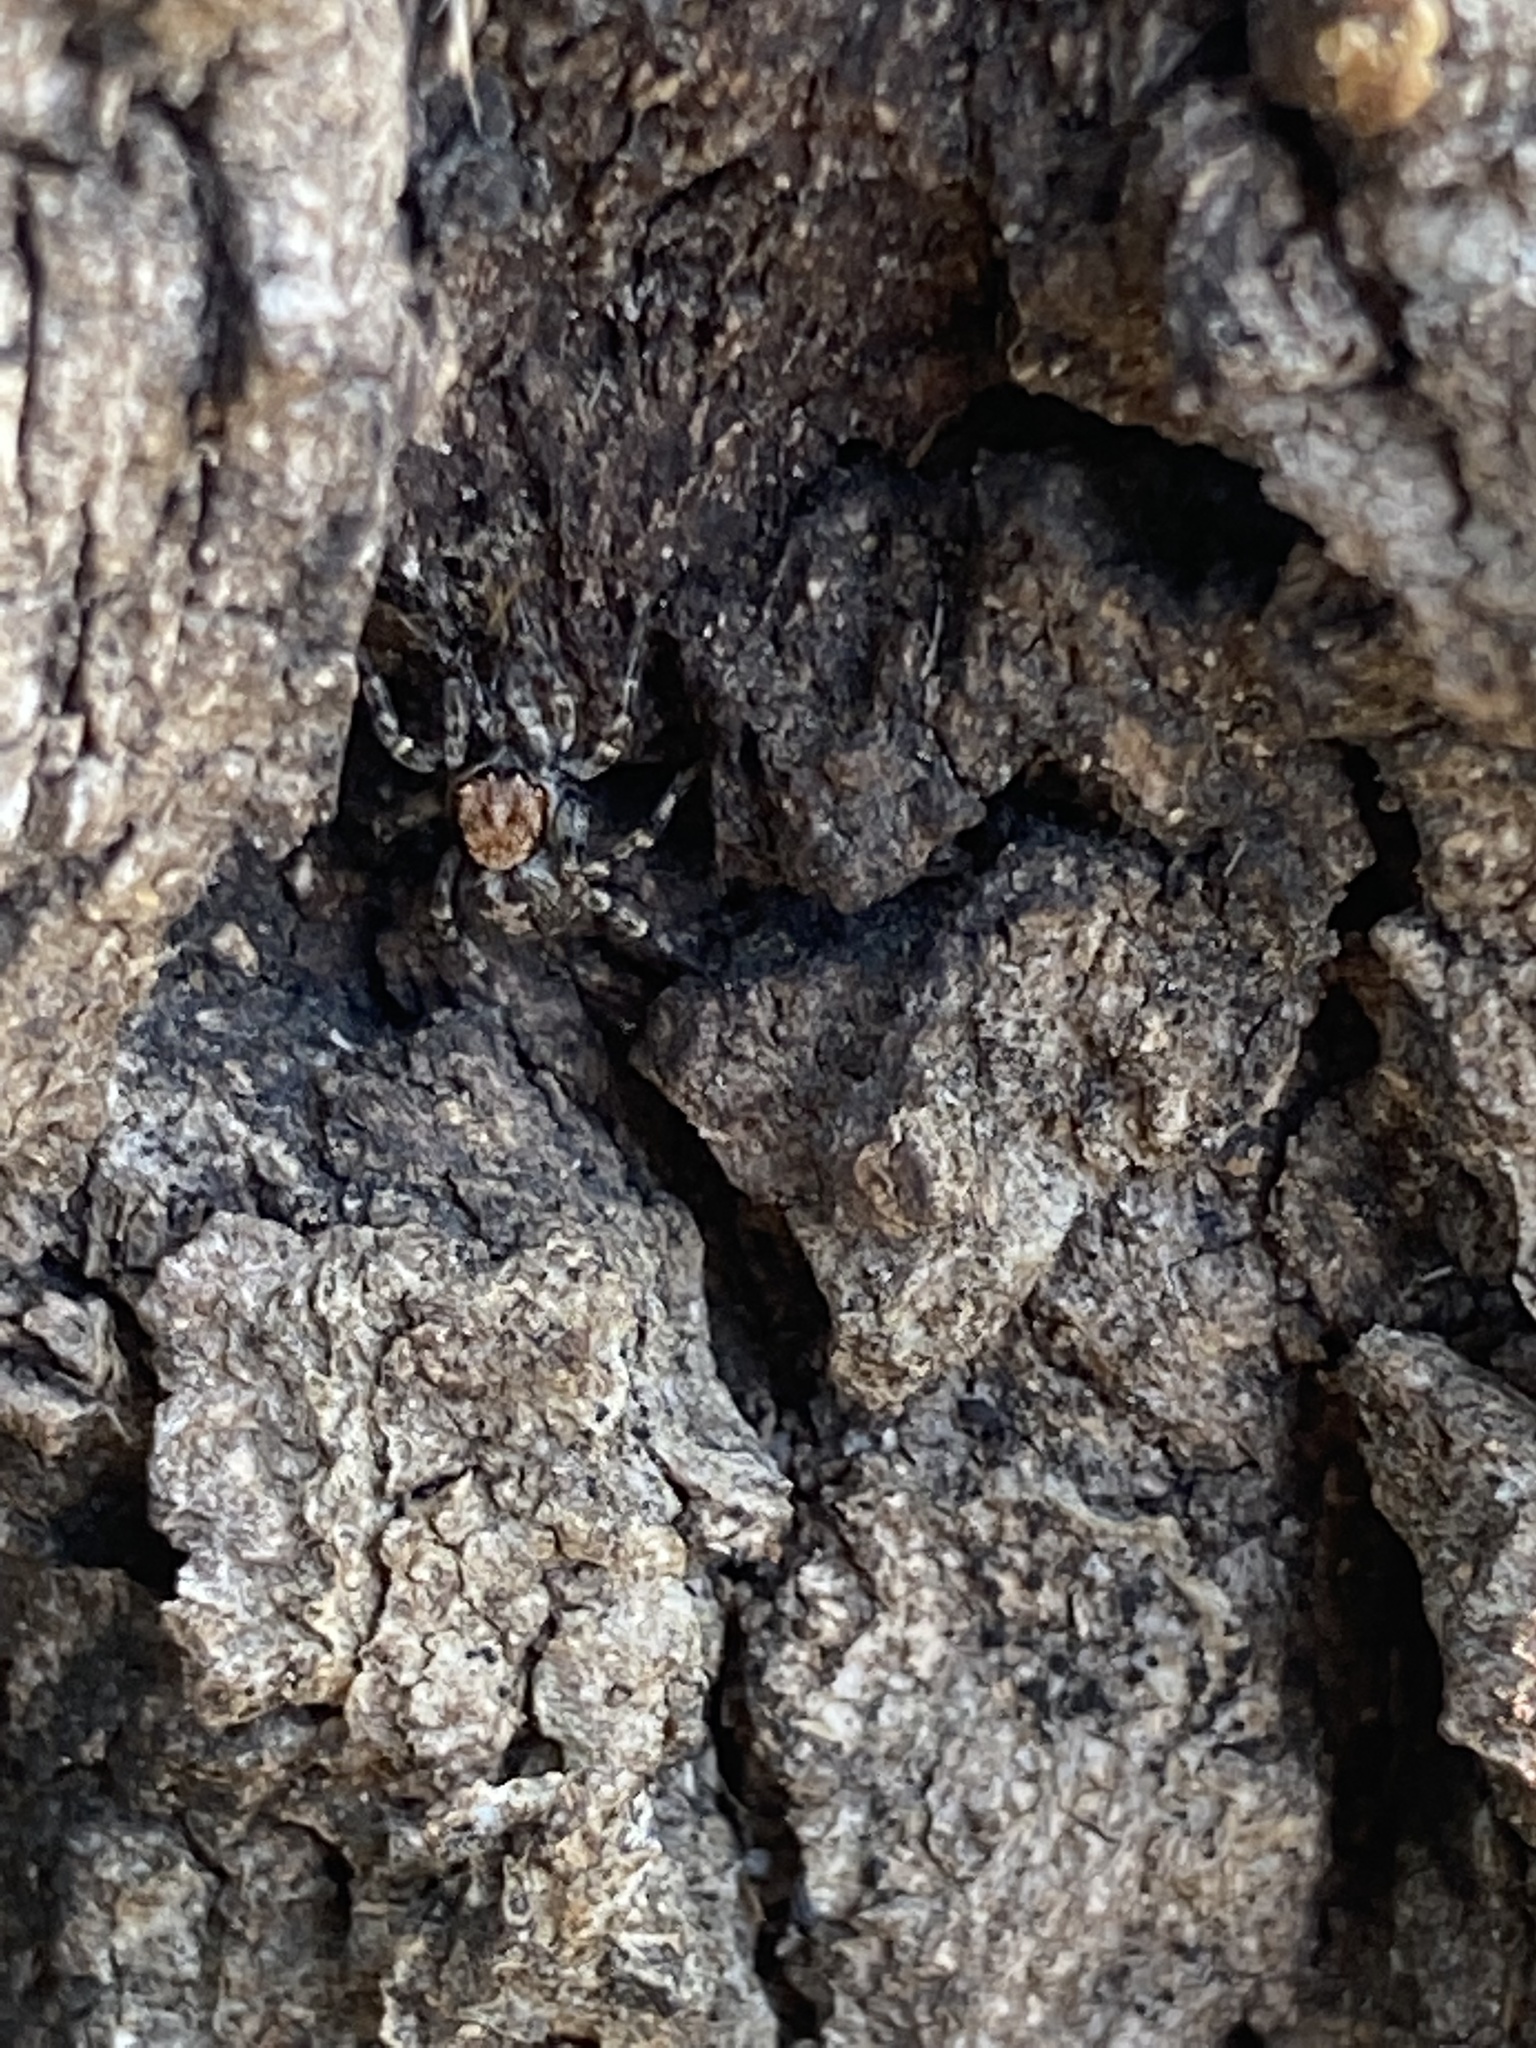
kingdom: Animalia
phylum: Arthropoda
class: Arachnida
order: Araneae
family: Salticidae
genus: Naphrys
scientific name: Naphrys pulex
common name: Flea jumping spider
